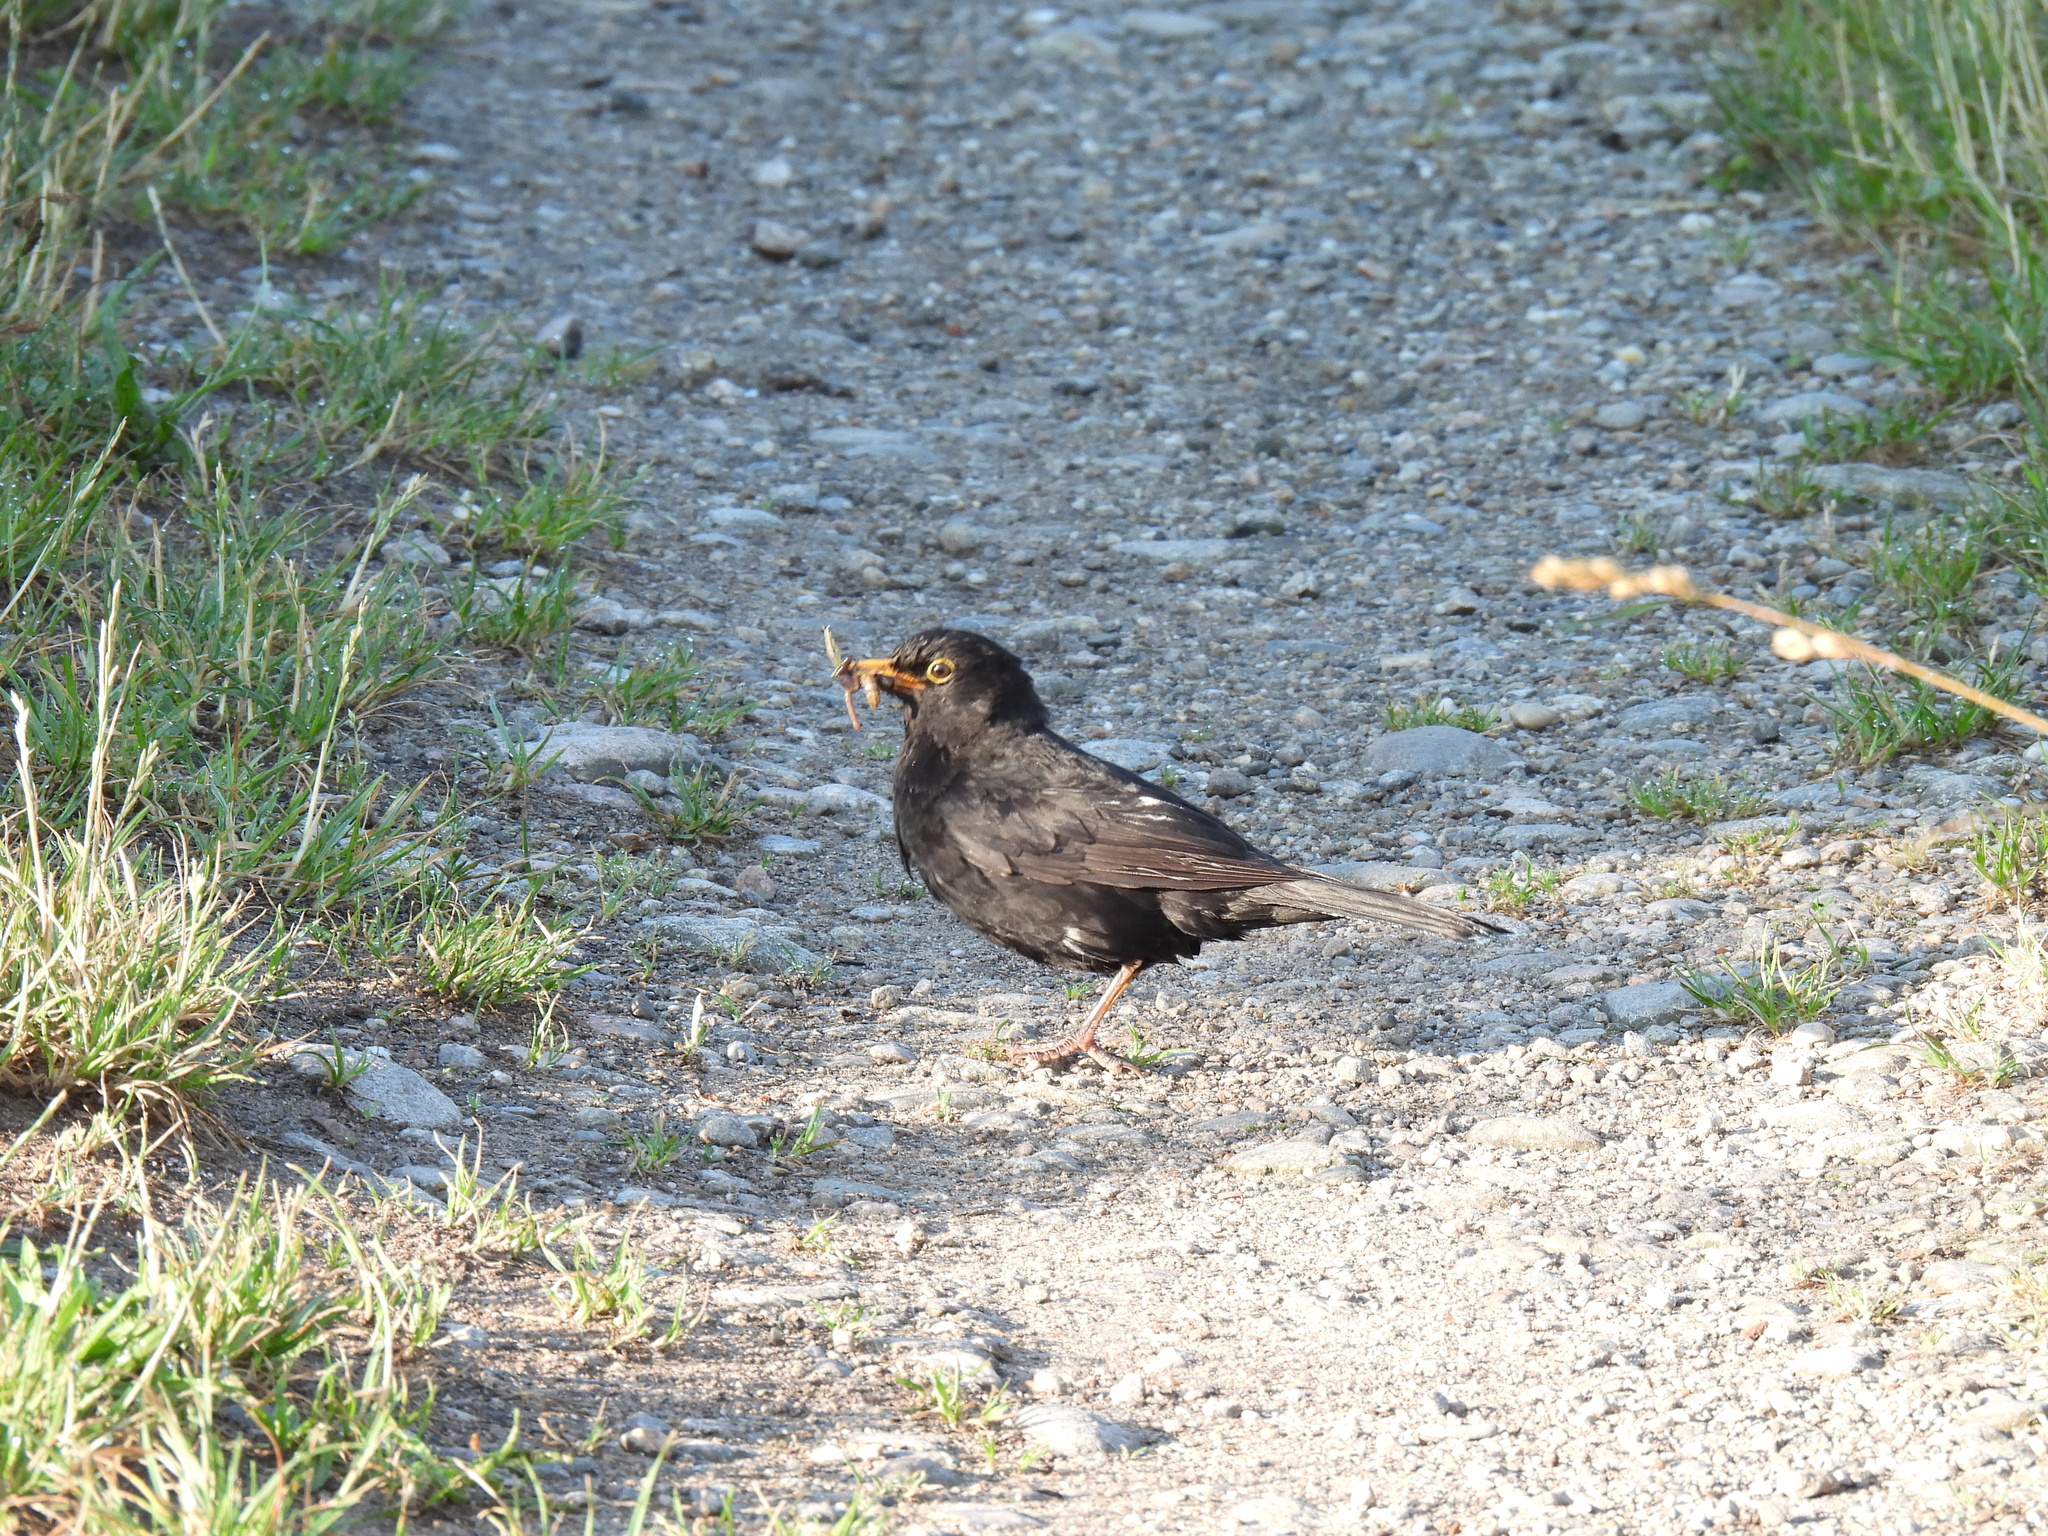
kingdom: Animalia
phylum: Chordata
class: Aves
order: Passeriformes
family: Turdidae
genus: Turdus
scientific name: Turdus merula
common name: Common blackbird
